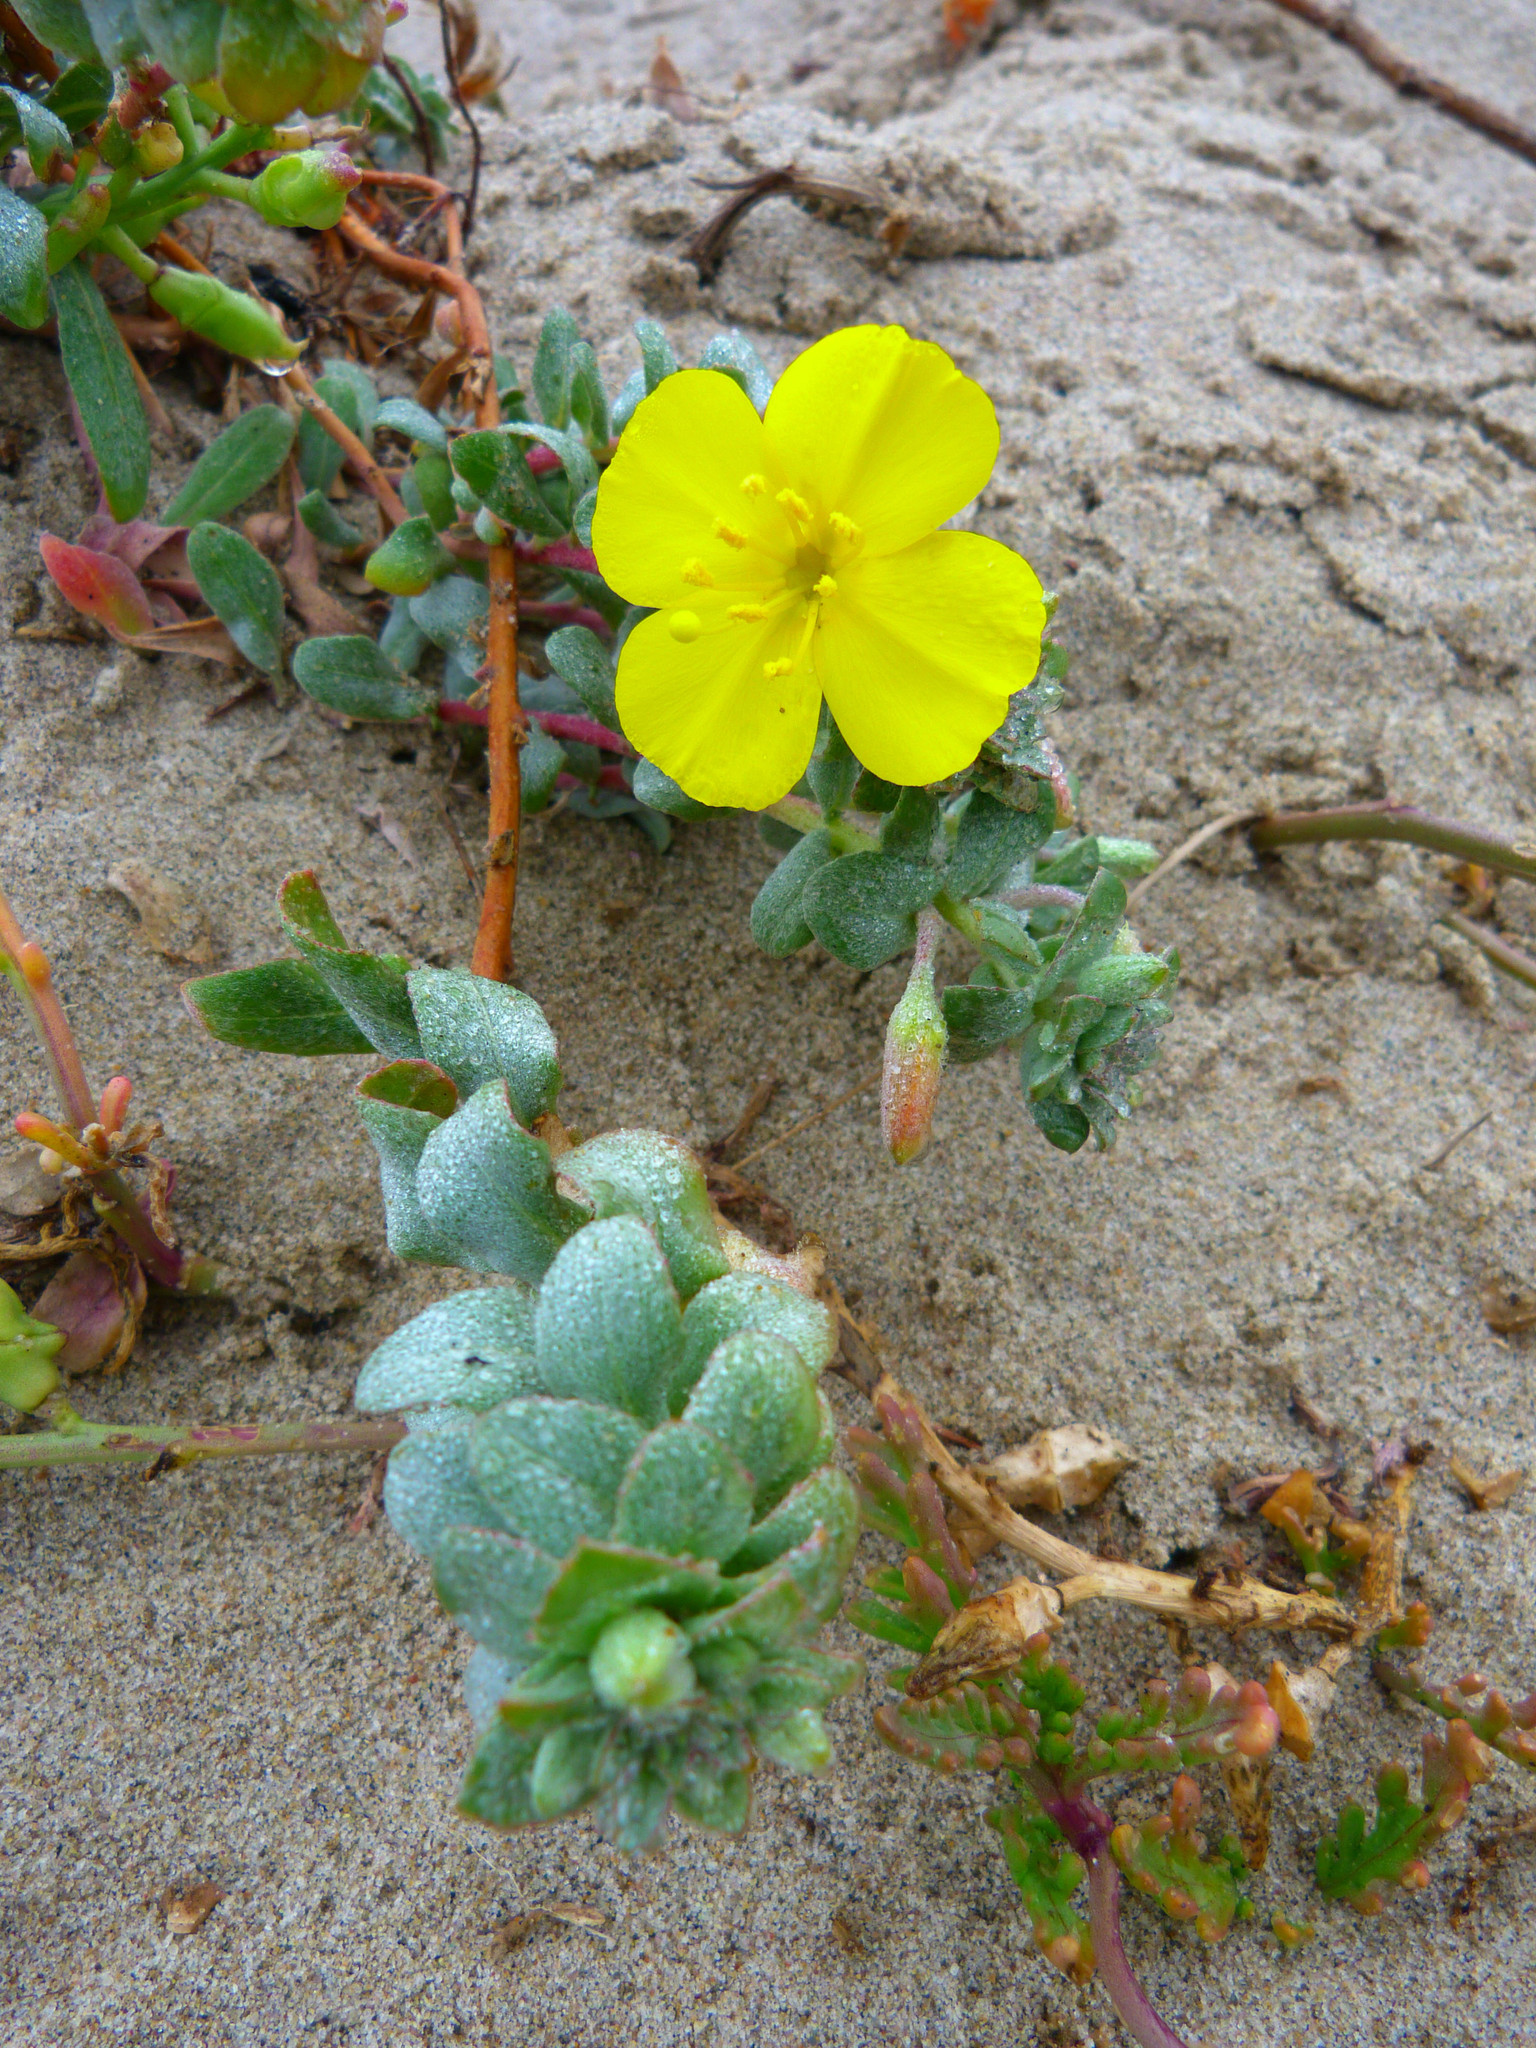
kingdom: Plantae
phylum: Tracheophyta
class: Magnoliopsida
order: Myrtales
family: Onagraceae
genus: Camissoniopsis
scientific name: Camissoniopsis cheiranthifolia
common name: Beach suncup
